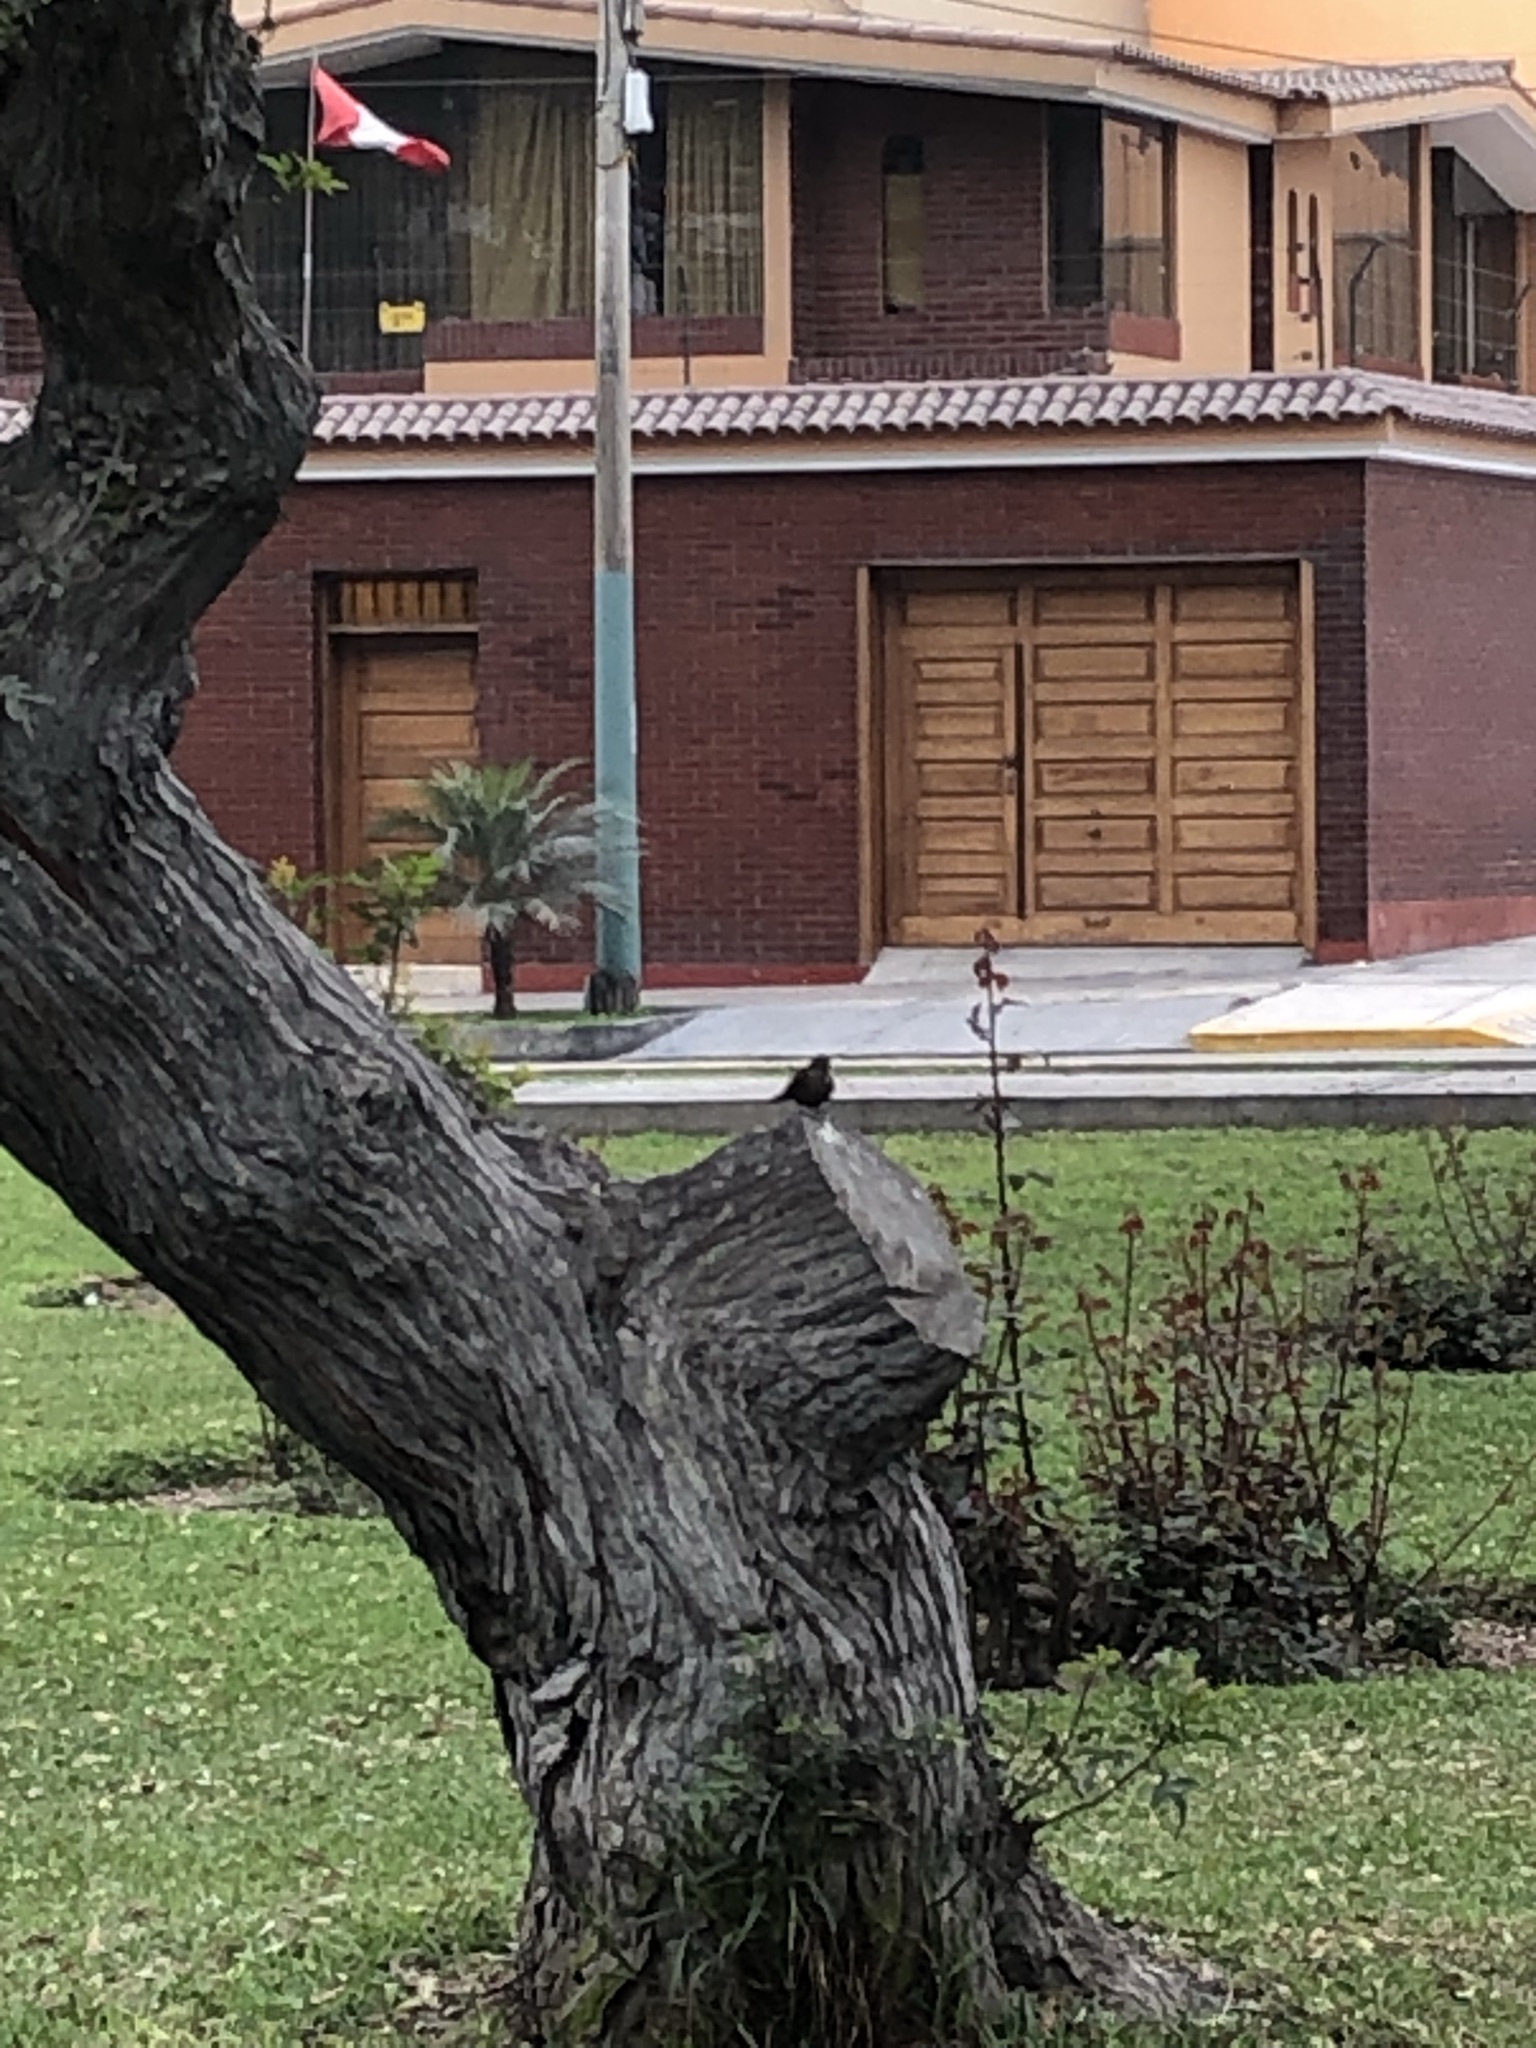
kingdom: Animalia
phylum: Chordata
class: Aves
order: Passeriformes
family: Tyrannidae
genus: Tyrannus
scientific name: Tyrannus melancholicus
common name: Tropical kingbird
